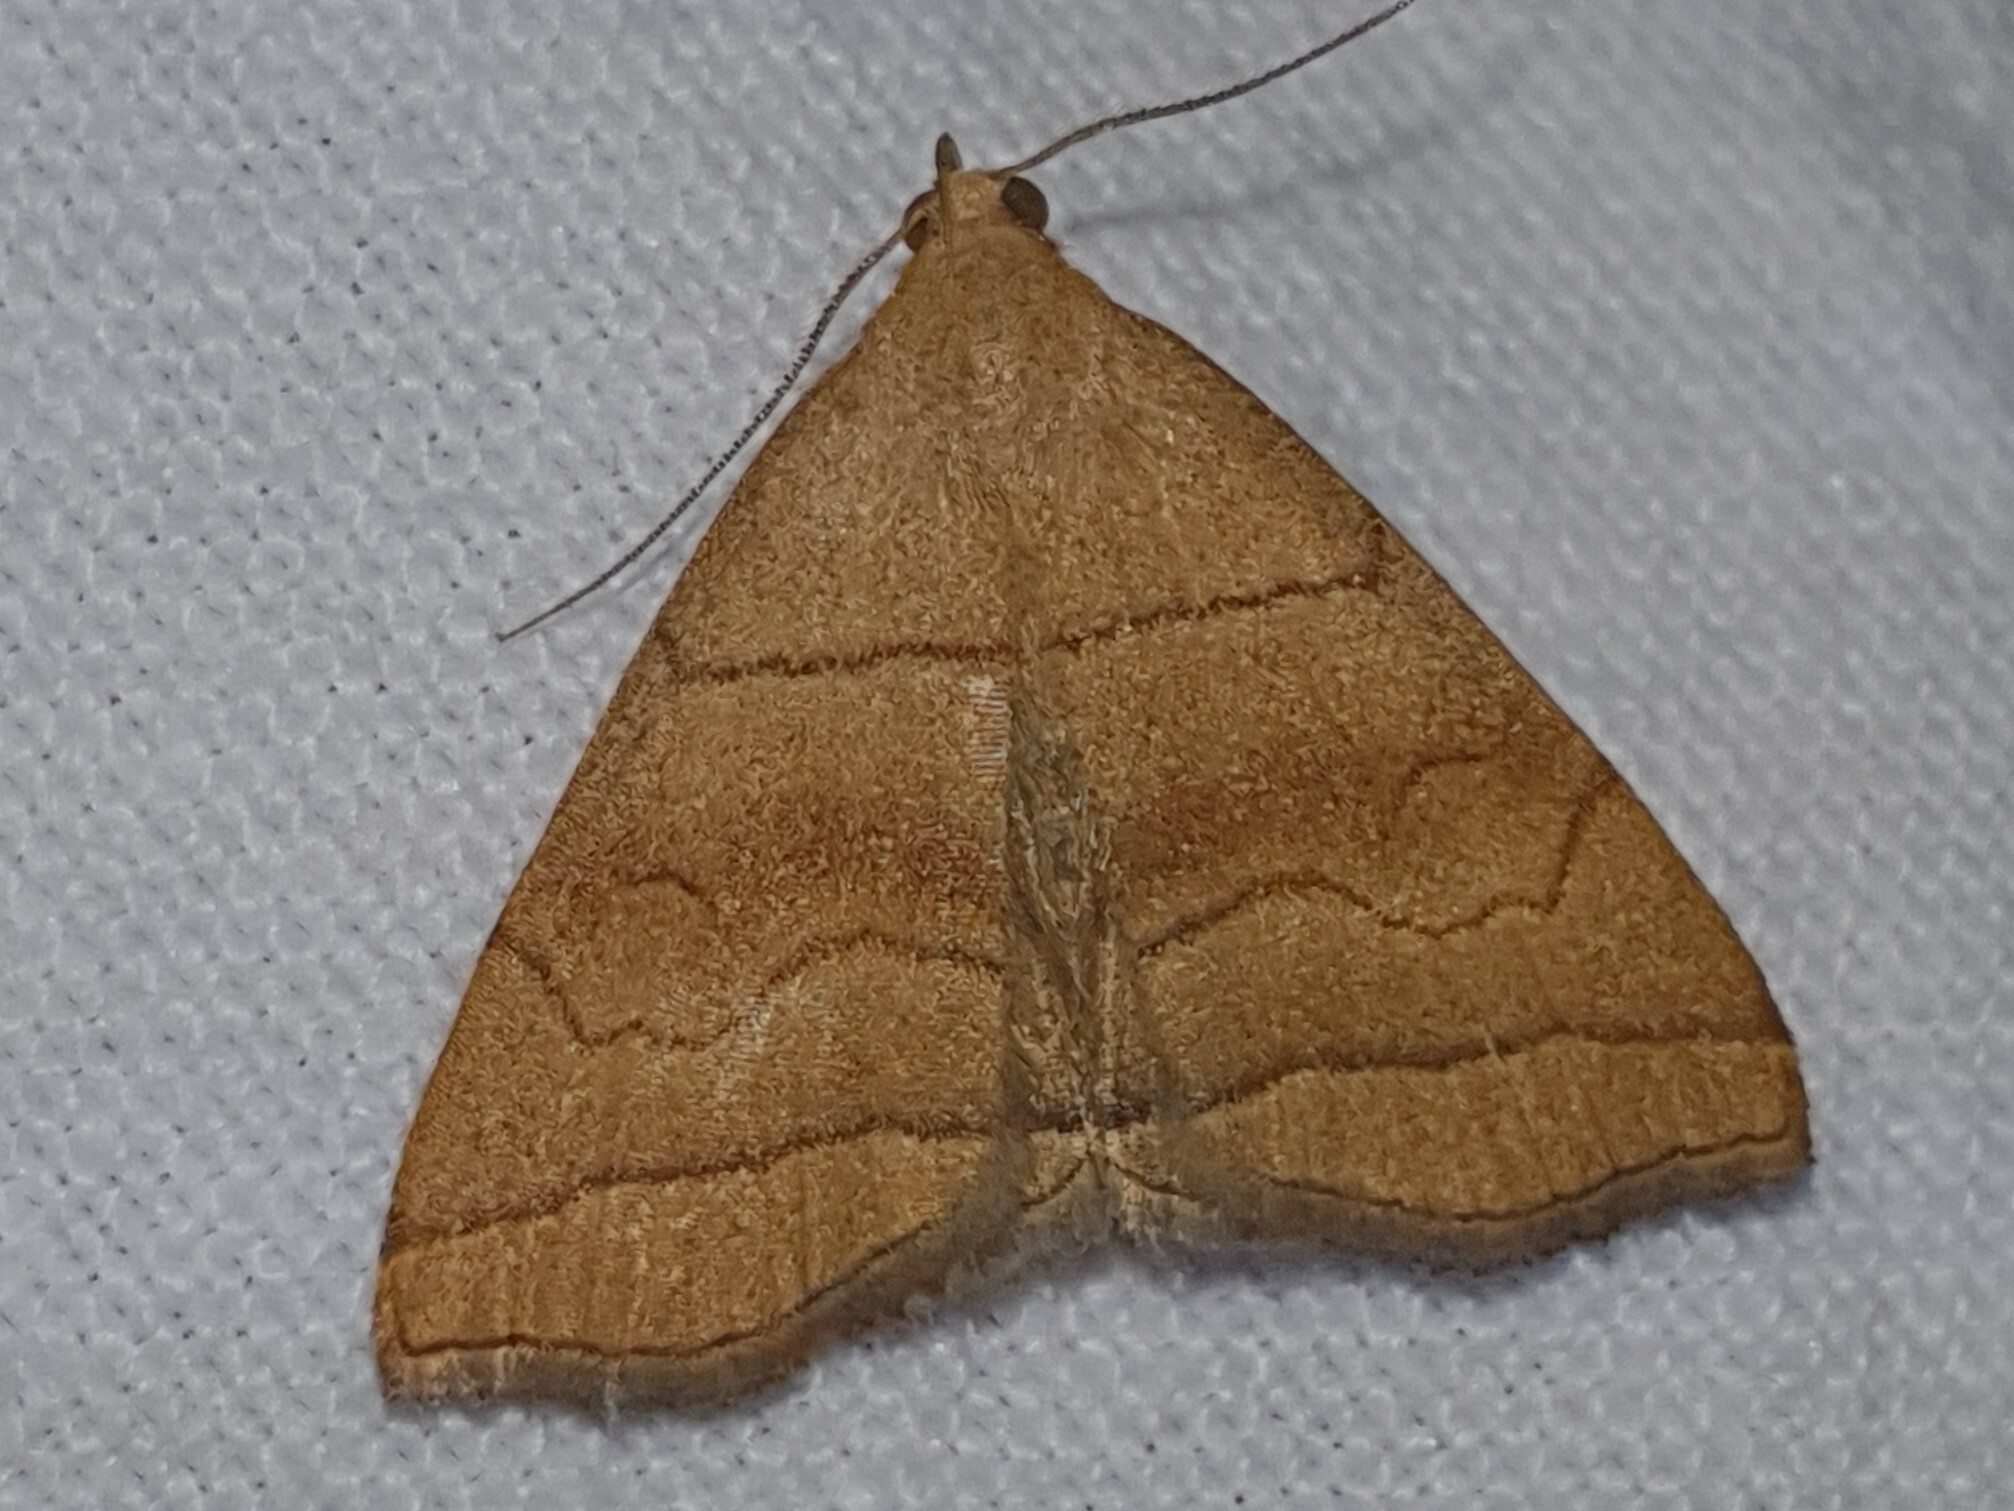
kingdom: Animalia
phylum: Arthropoda
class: Insecta
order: Lepidoptera
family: Erebidae
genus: Herminia
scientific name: Herminia tarsicrinalis
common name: Shaded fan-foot
